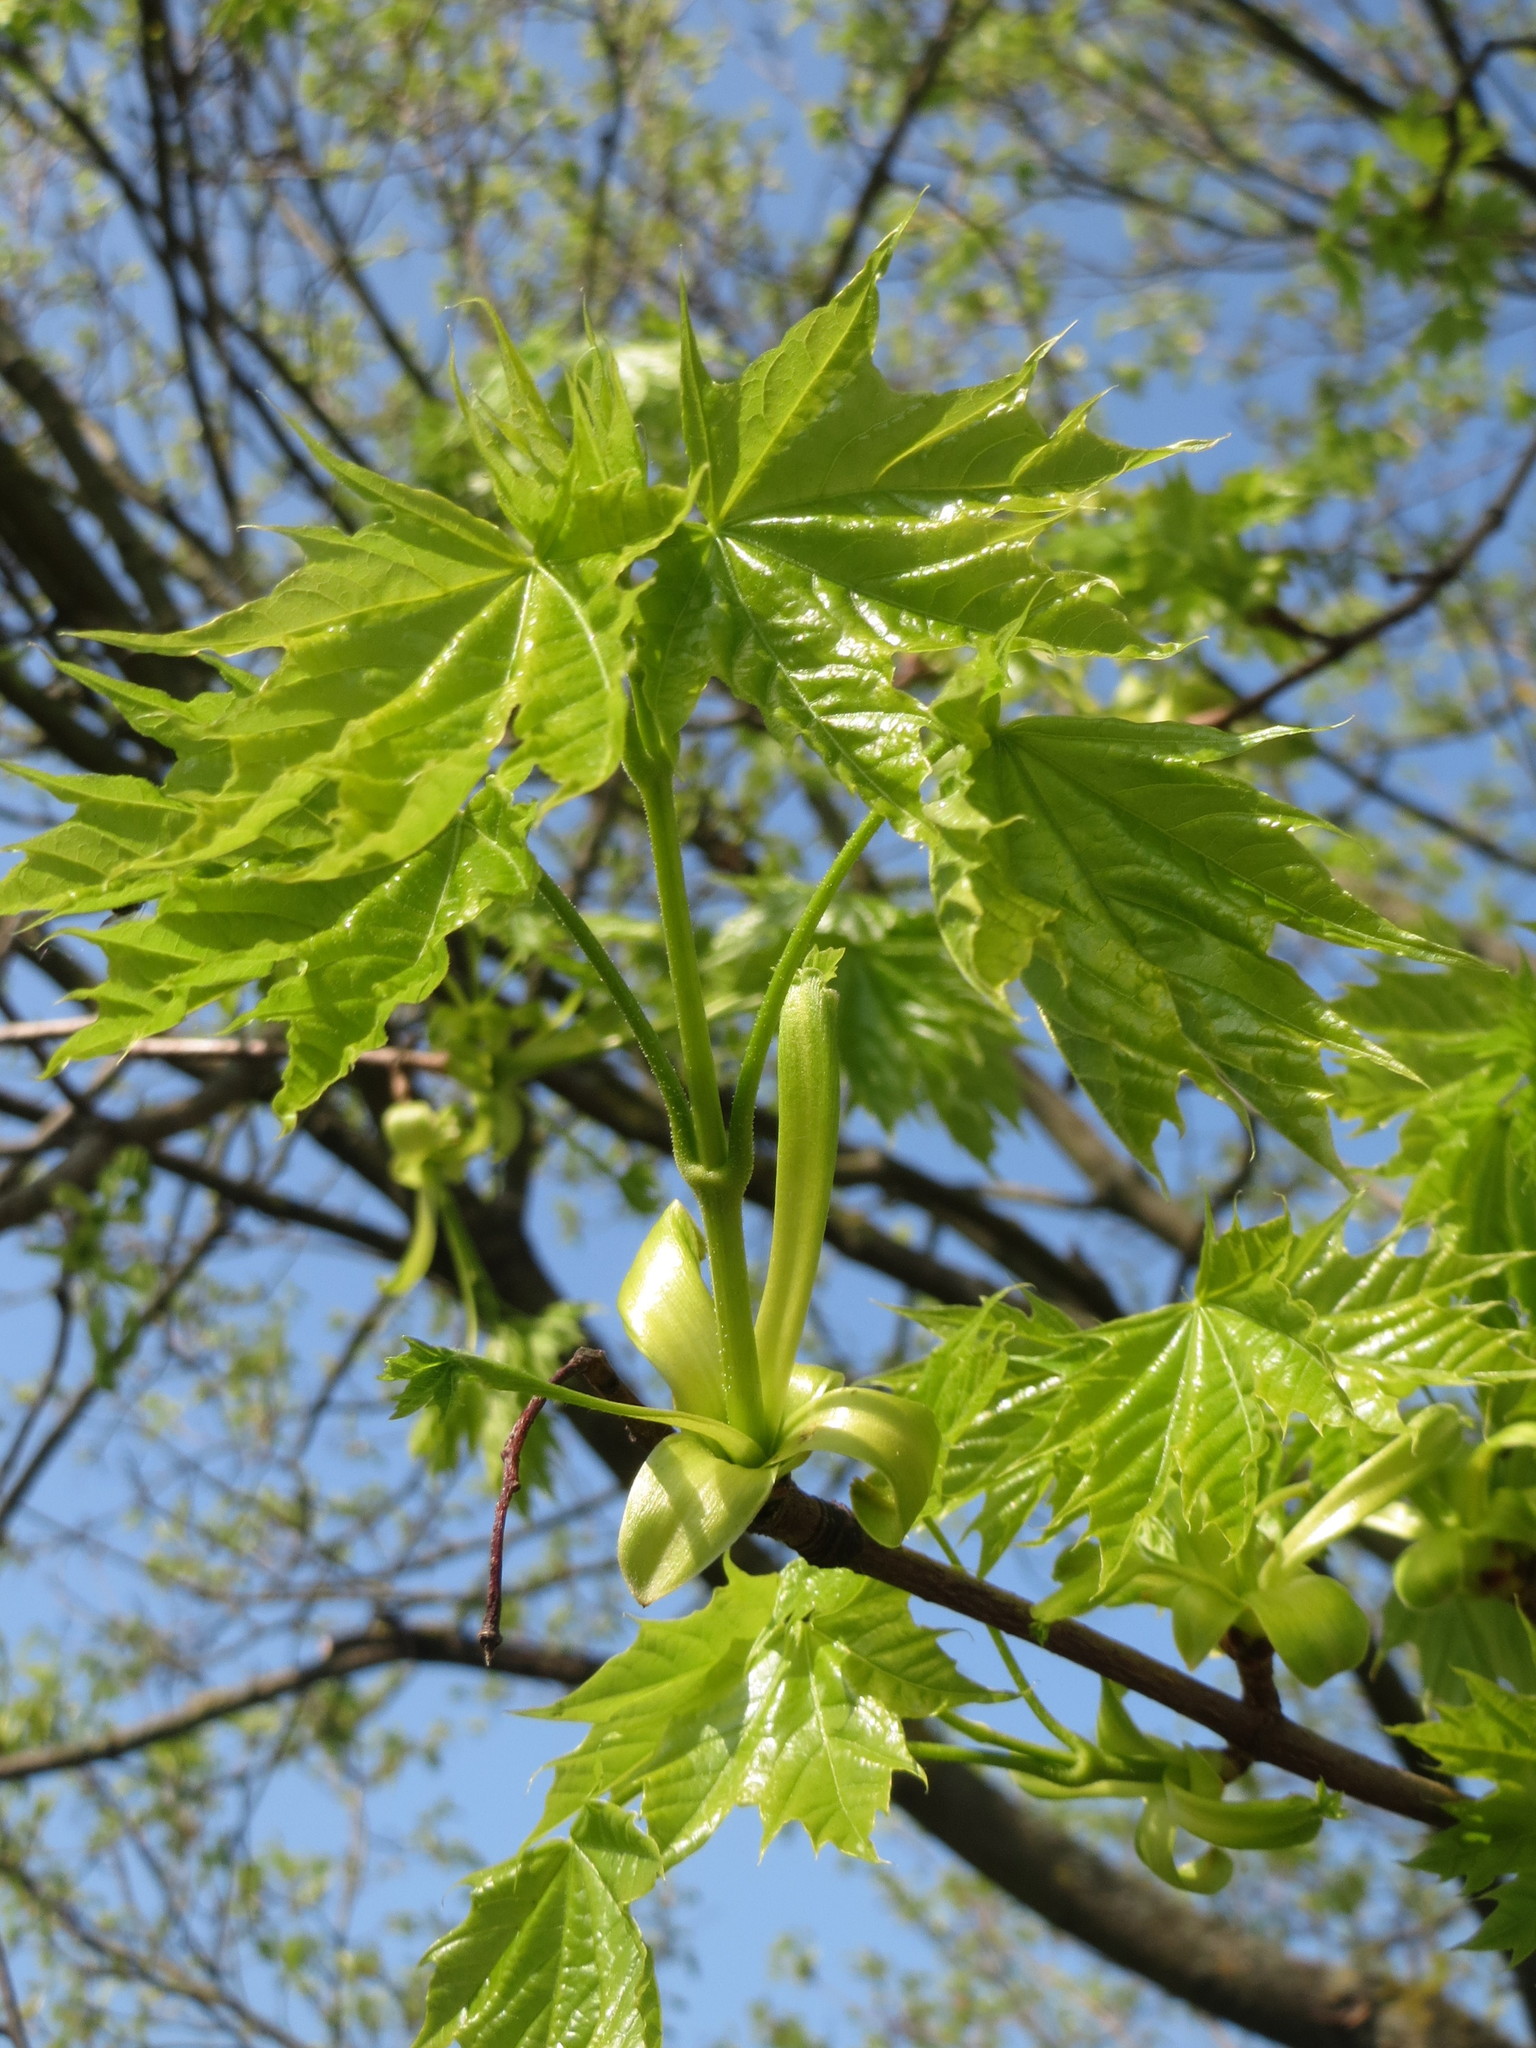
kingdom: Plantae
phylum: Tracheophyta
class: Magnoliopsida
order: Sapindales
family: Sapindaceae
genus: Acer
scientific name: Acer platanoides
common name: Norway maple
